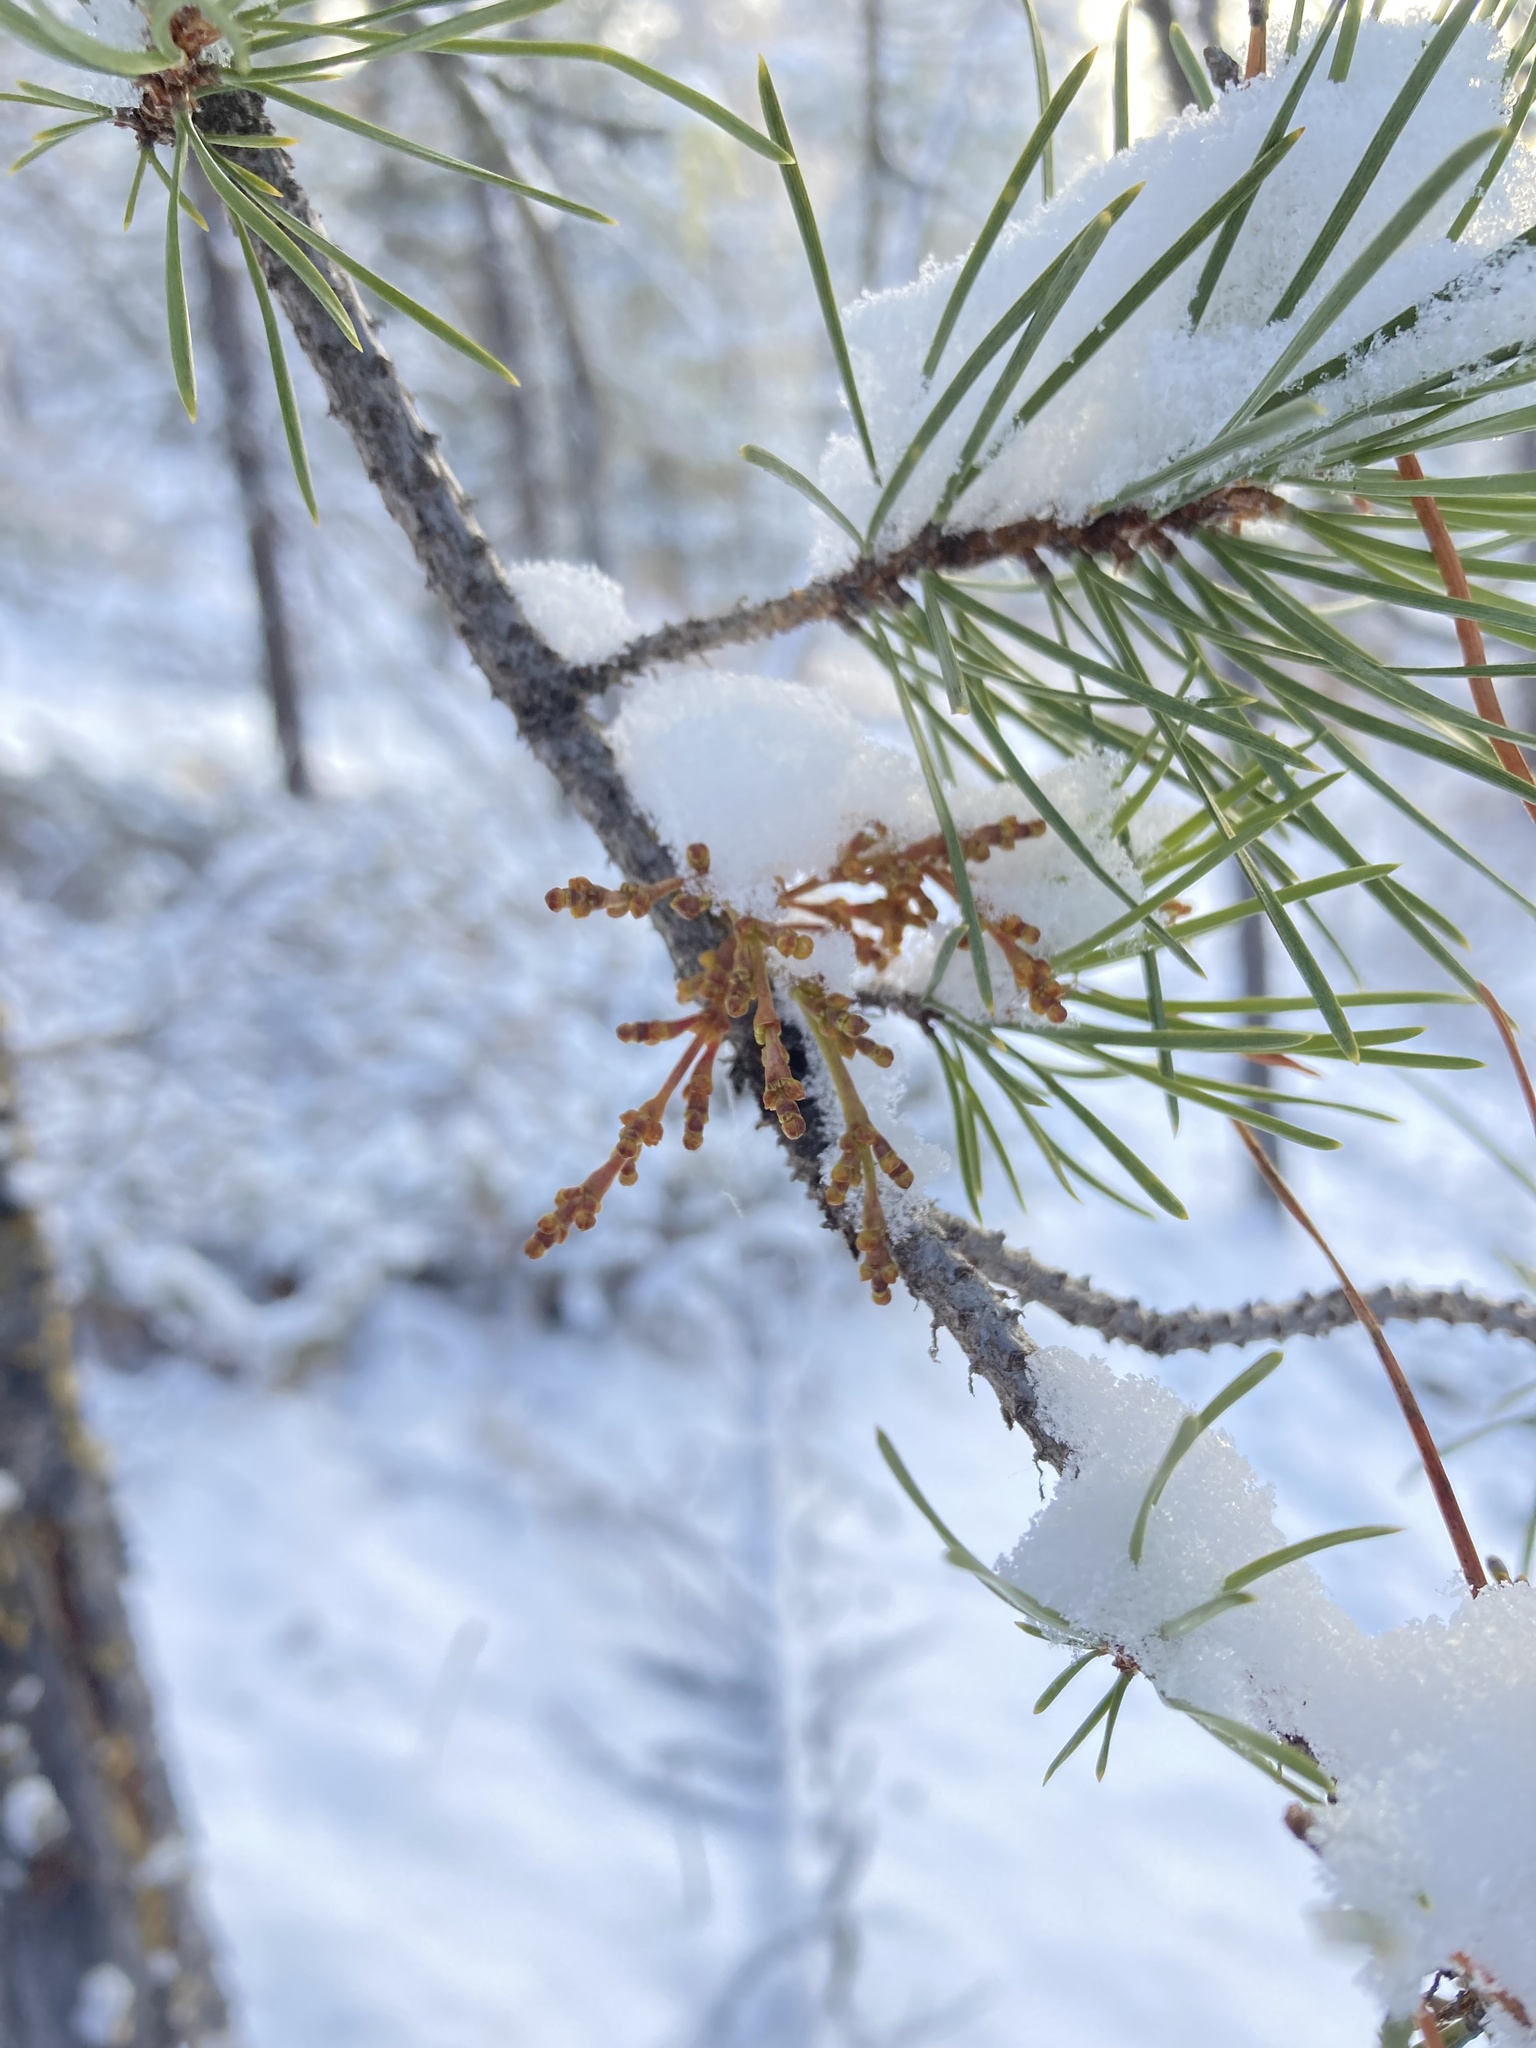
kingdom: Plantae
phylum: Tracheophyta
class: Magnoliopsida
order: Santalales
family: Viscaceae
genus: Arceuthobium
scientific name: Arceuthobium americanum
